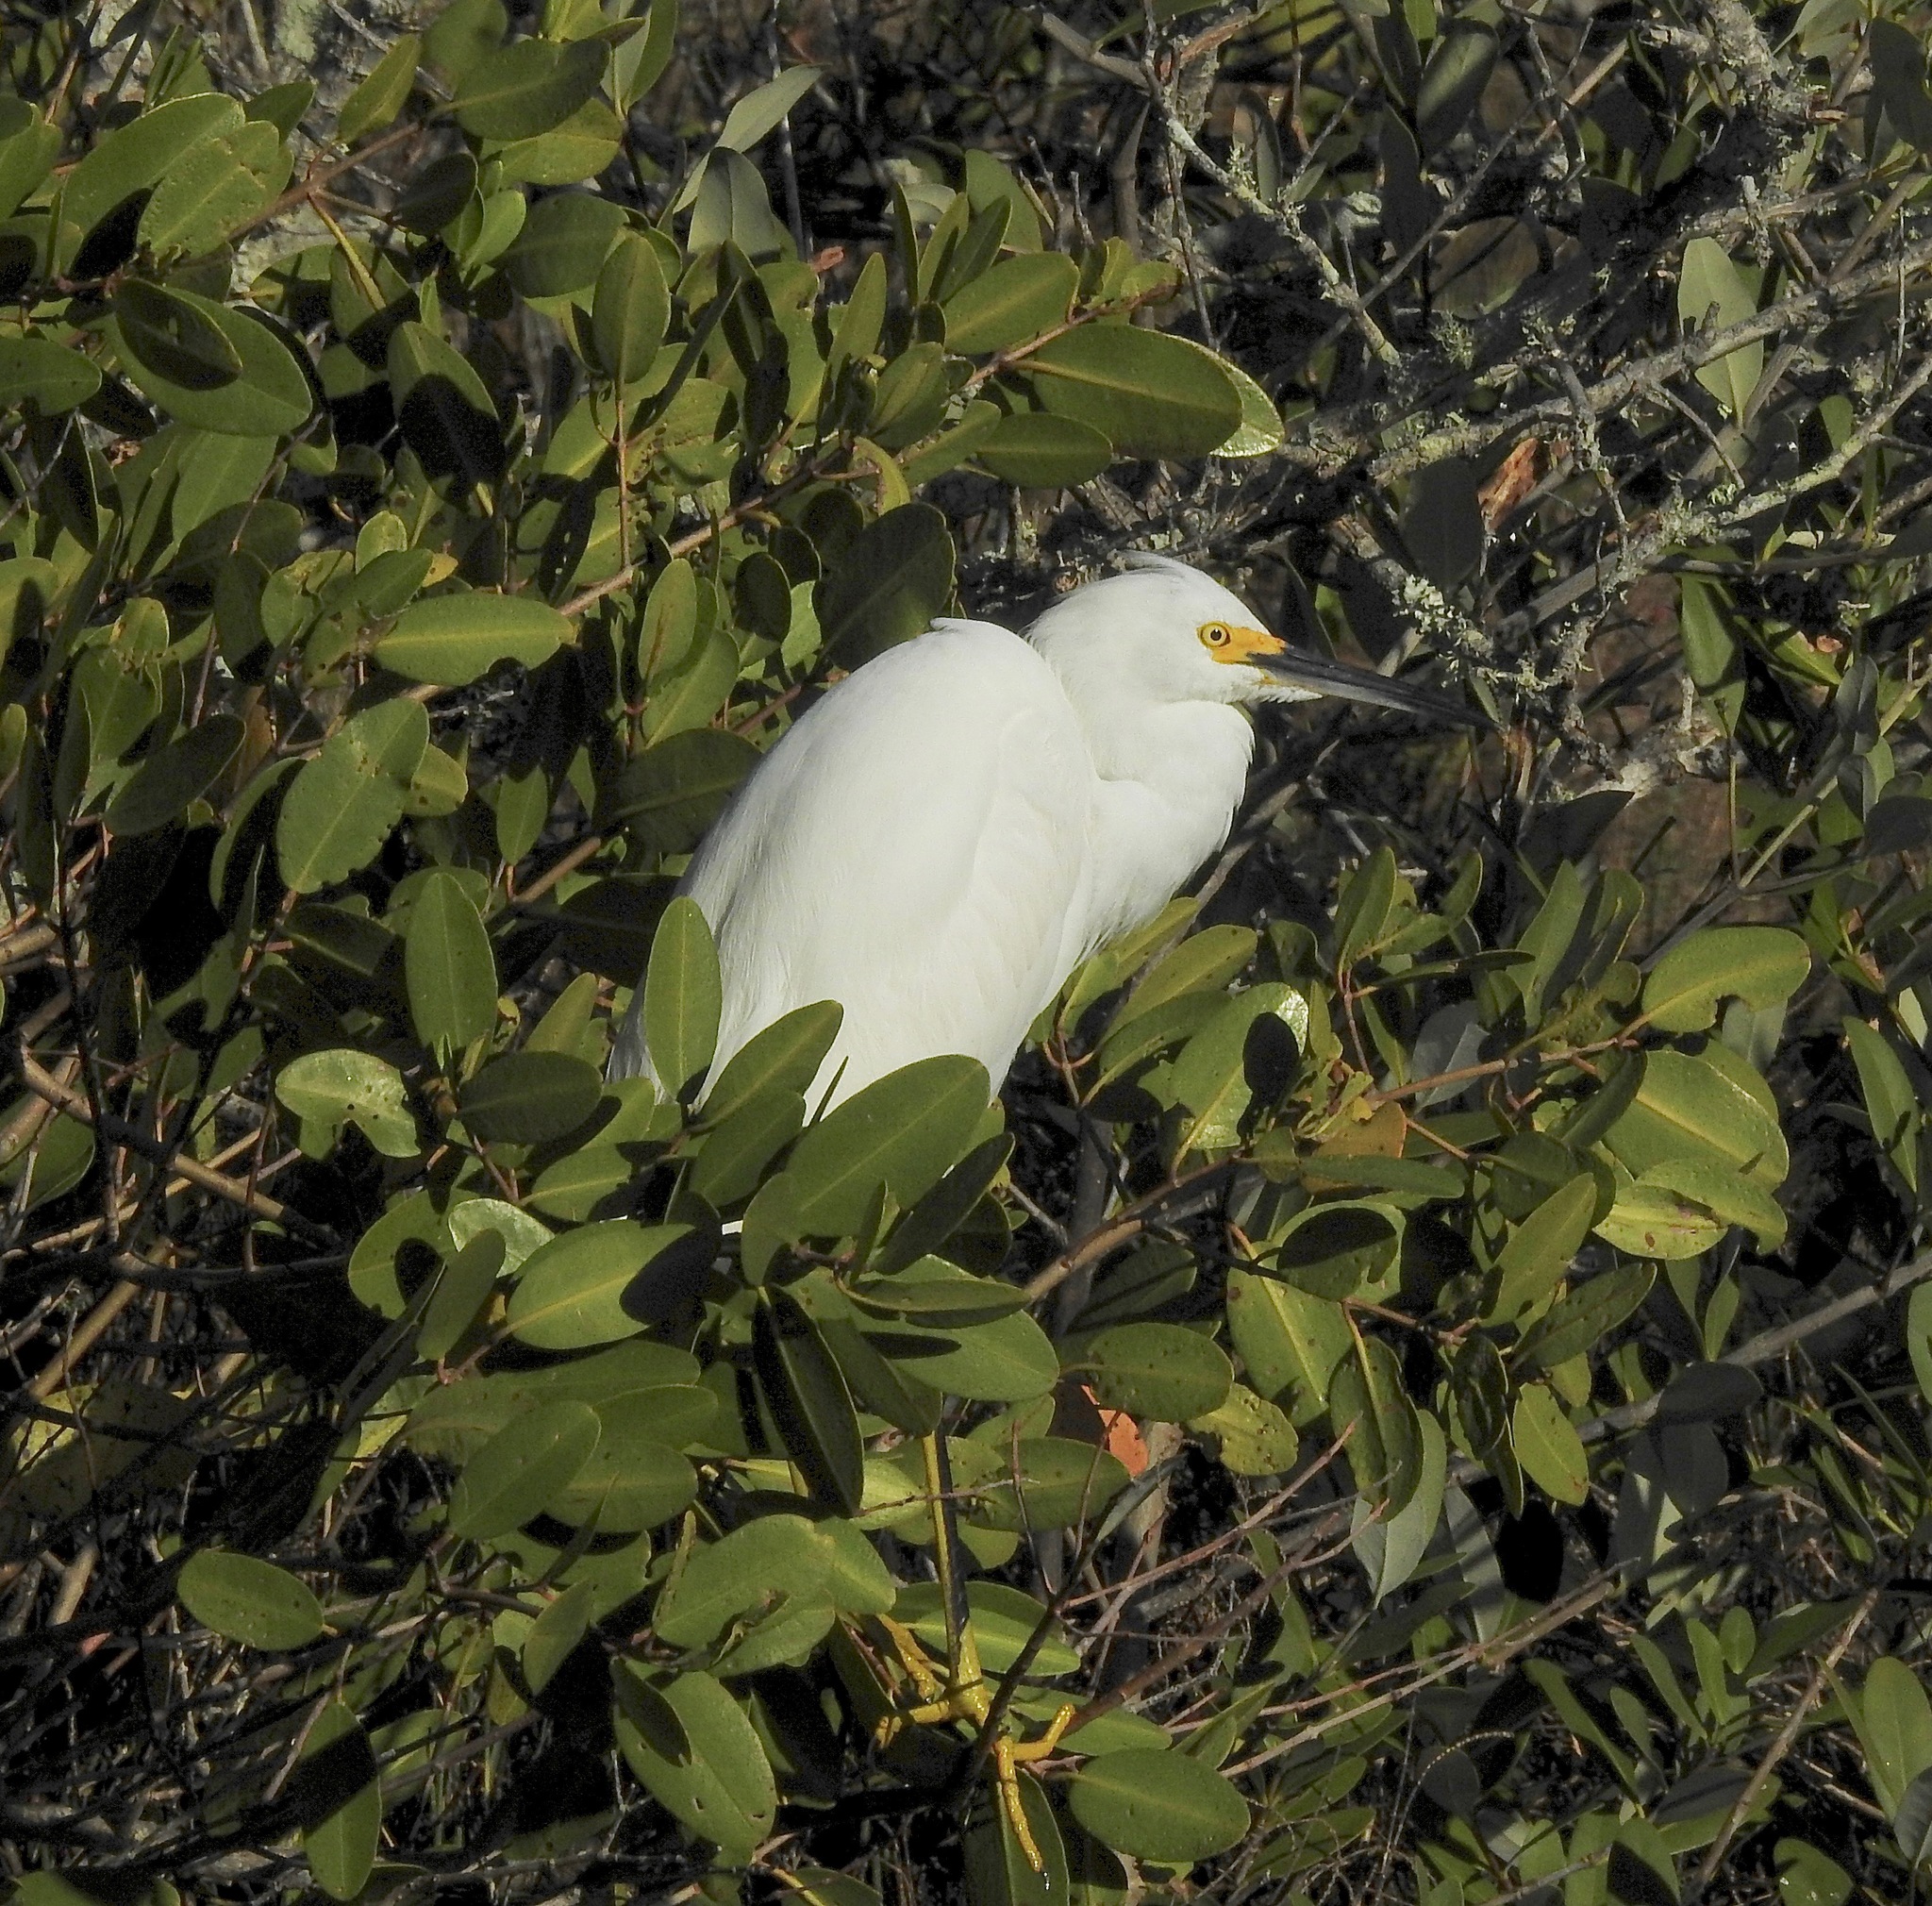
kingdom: Animalia
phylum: Chordata
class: Aves
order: Pelecaniformes
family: Ardeidae
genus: Egretta
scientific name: Egretta thula
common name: Snowy egret
